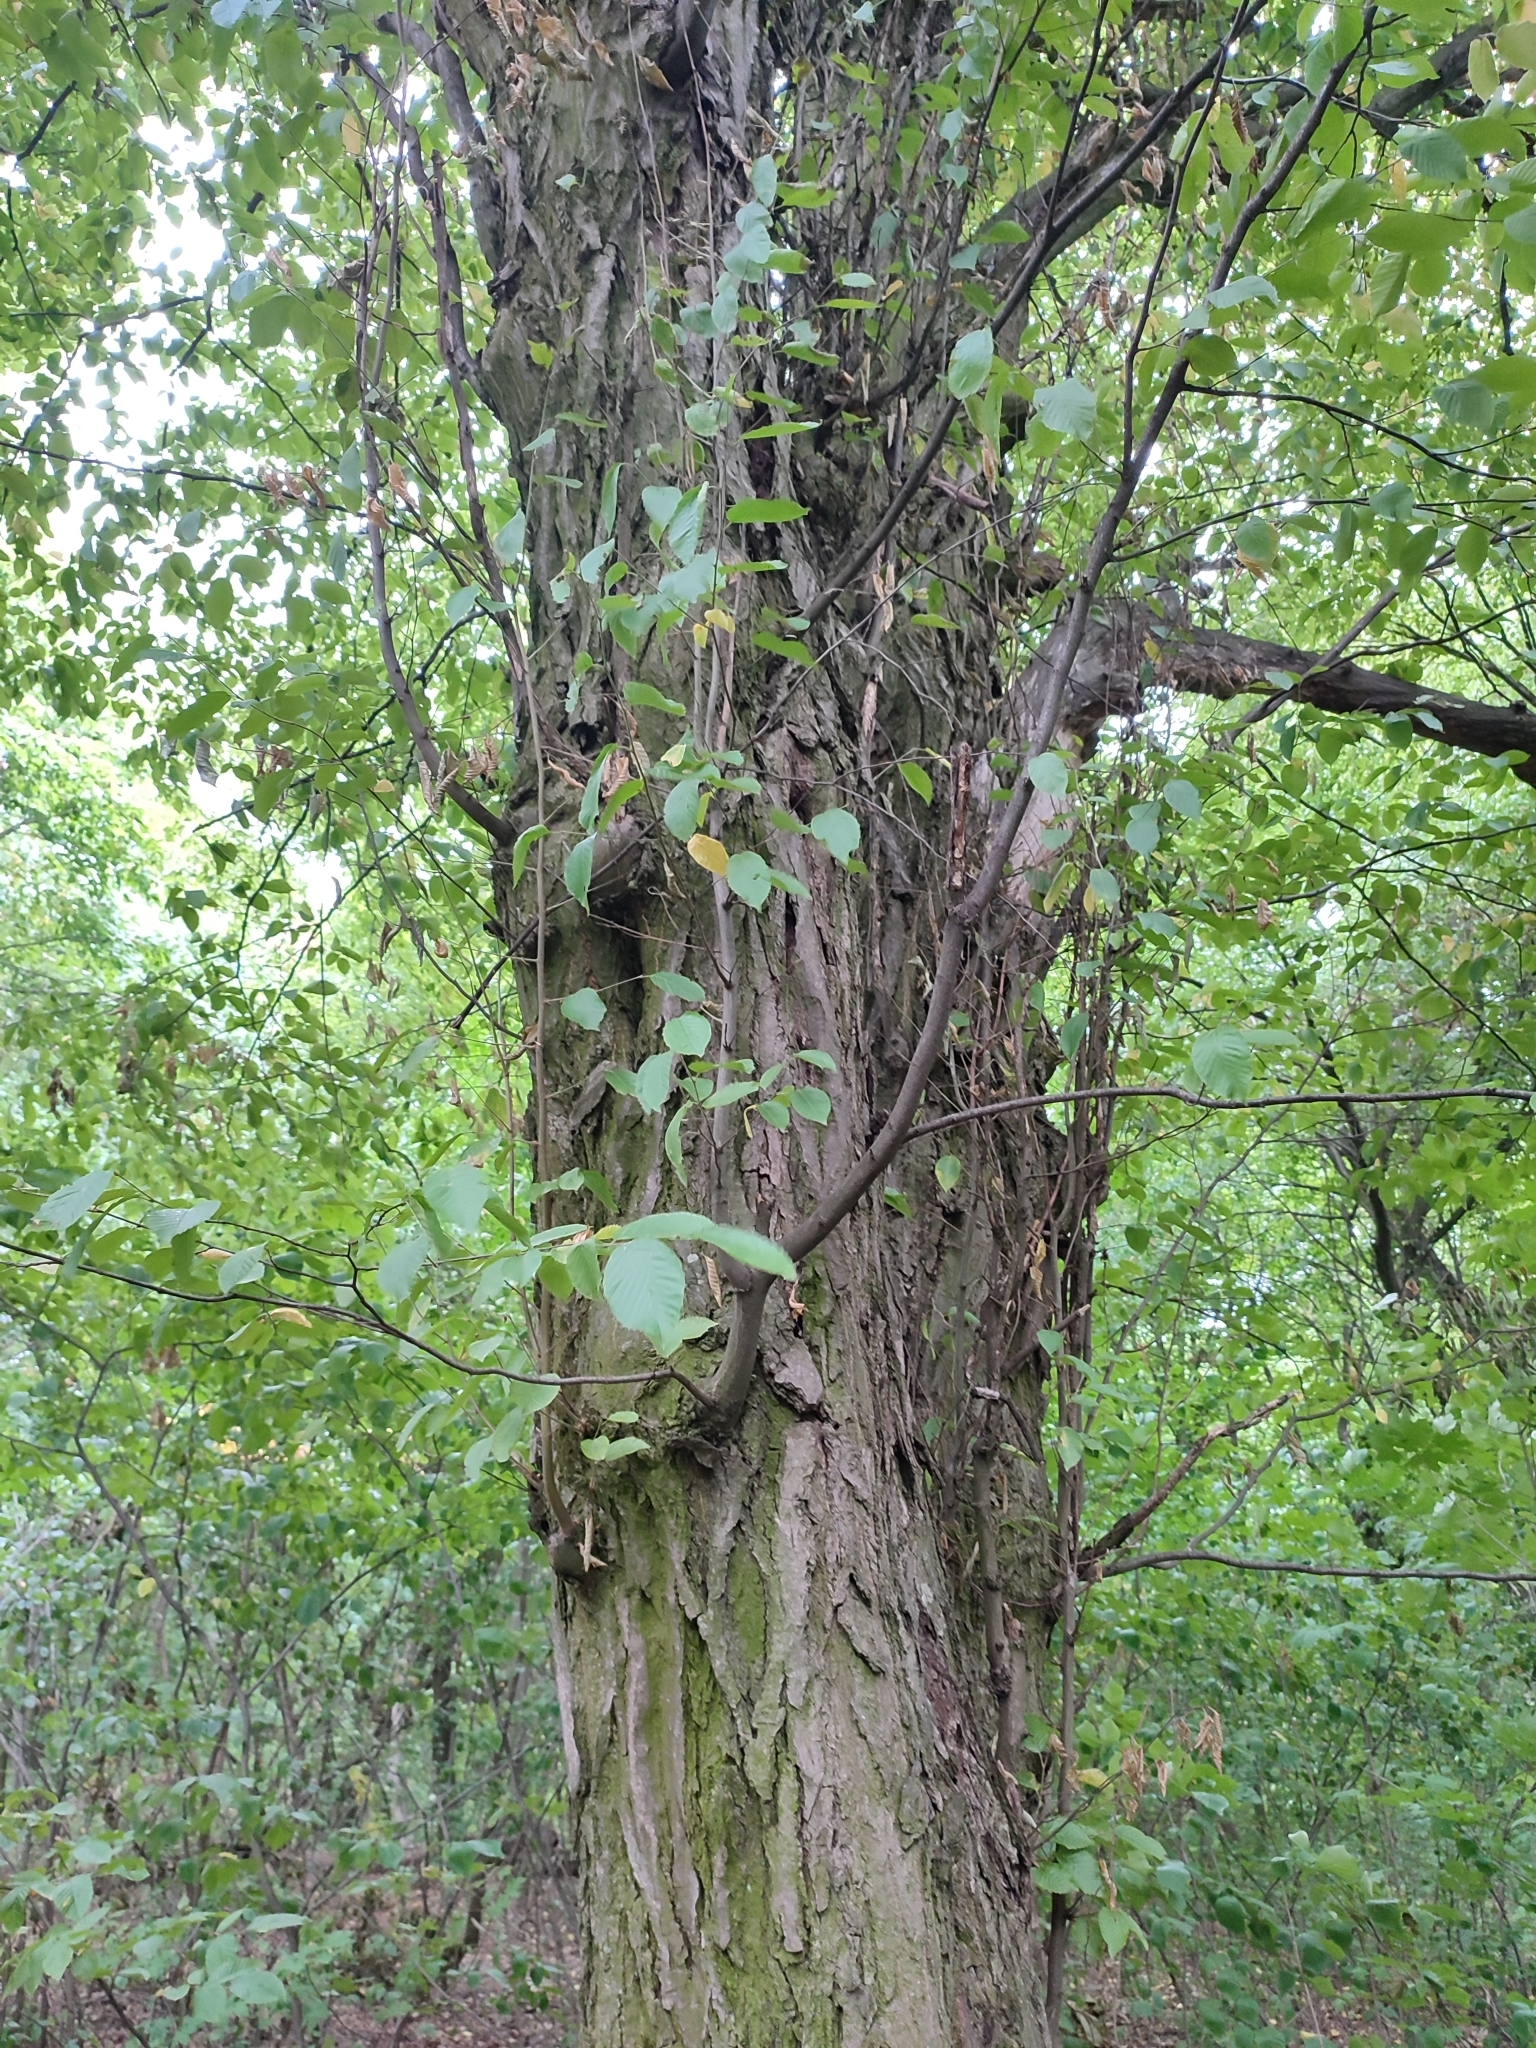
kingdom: Plantae
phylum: Tracheophyta
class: Magnoliopsida
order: Fagales
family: Betulaceae
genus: Carpinus
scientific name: Carpinus betulus
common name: Hornbeam
